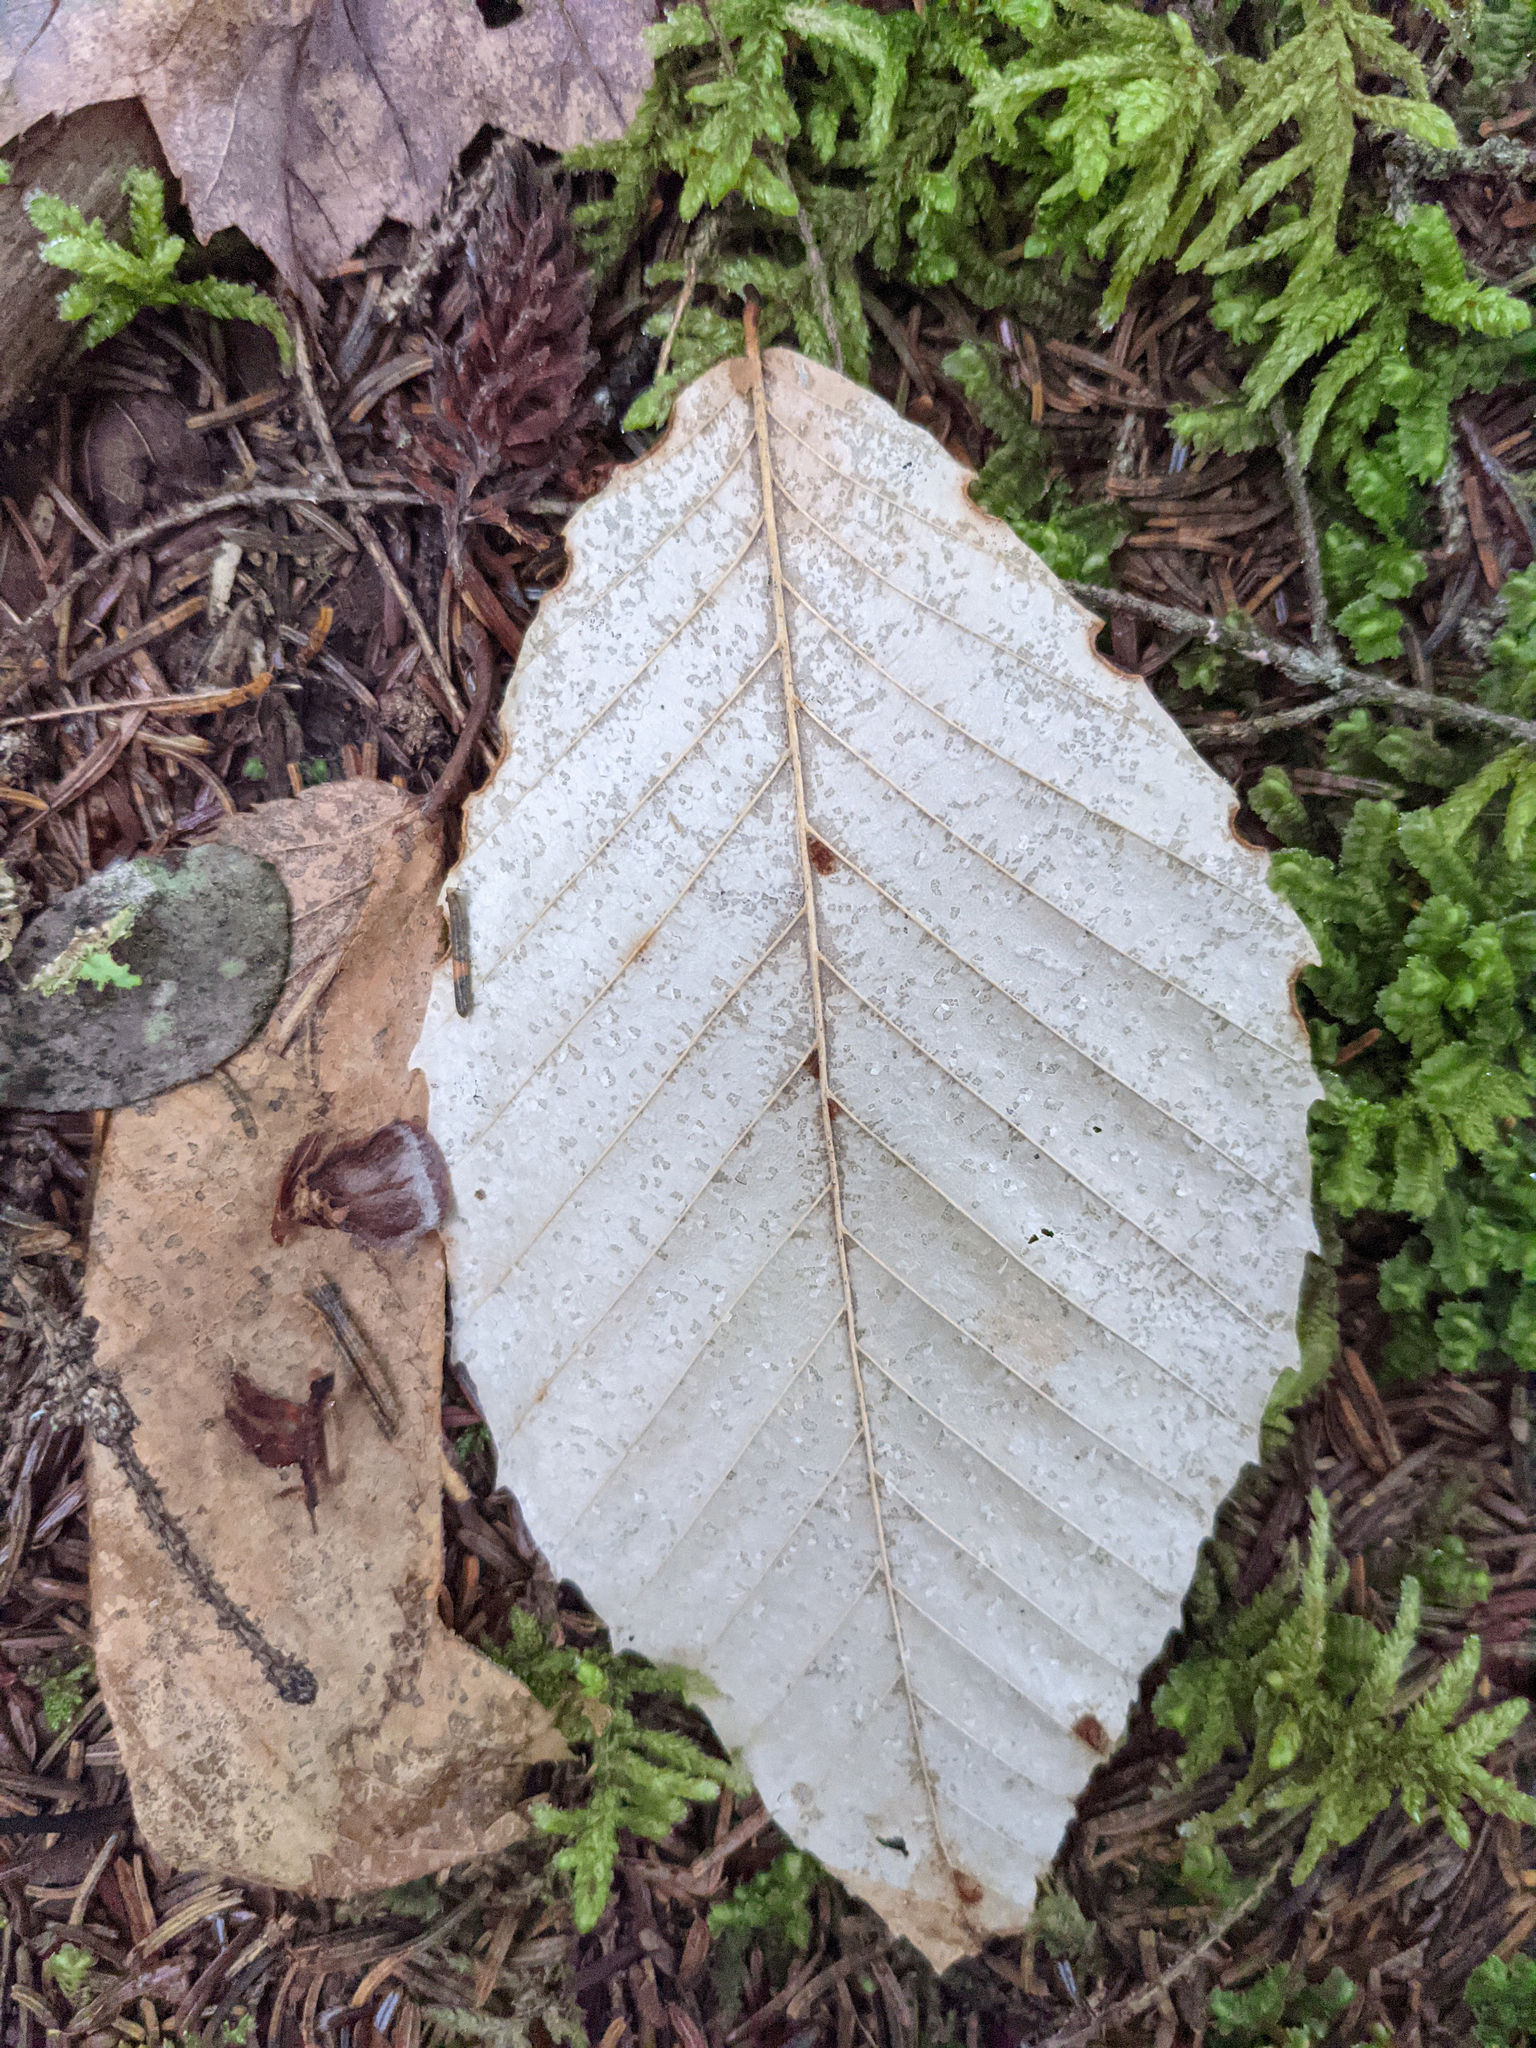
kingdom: Plantae
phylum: Tracheophyta
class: Magnoliopsida
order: Fagales
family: Fagaceae
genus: Fagus
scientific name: Fagus grandifolia
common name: American beech
